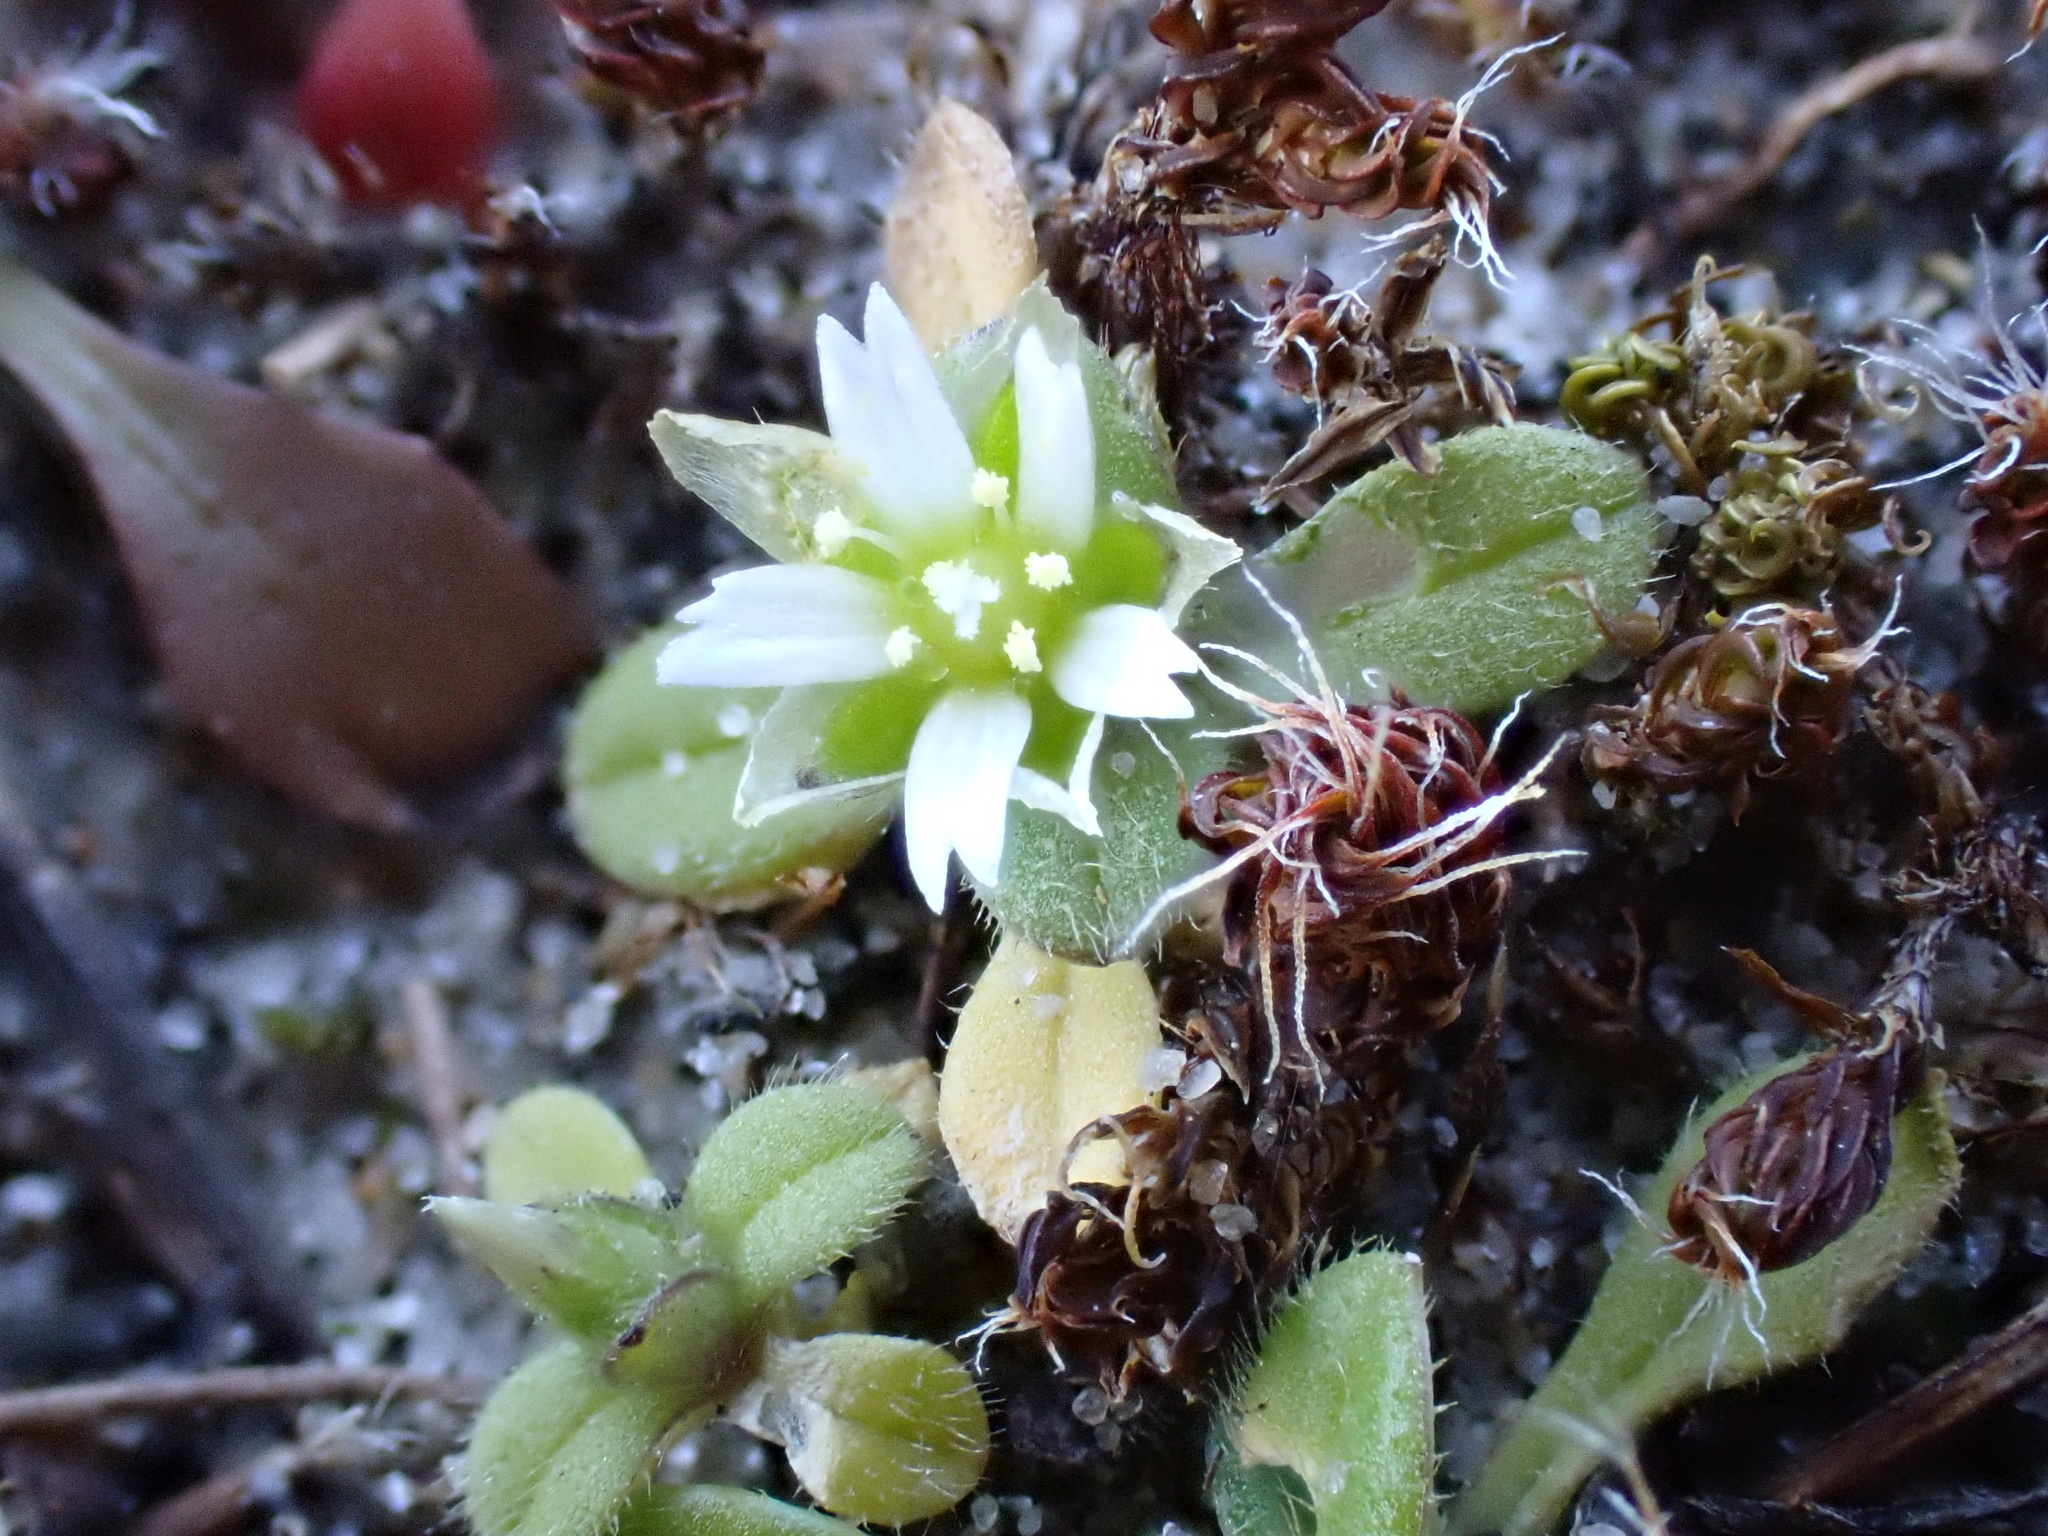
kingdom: Plantae
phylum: Tracheophyta
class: Magnoliopsida
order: Caryophyllales
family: Caryophyllaceae
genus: Cerastium
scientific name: Cerastium semidecandrum
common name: Little mouse-ear
